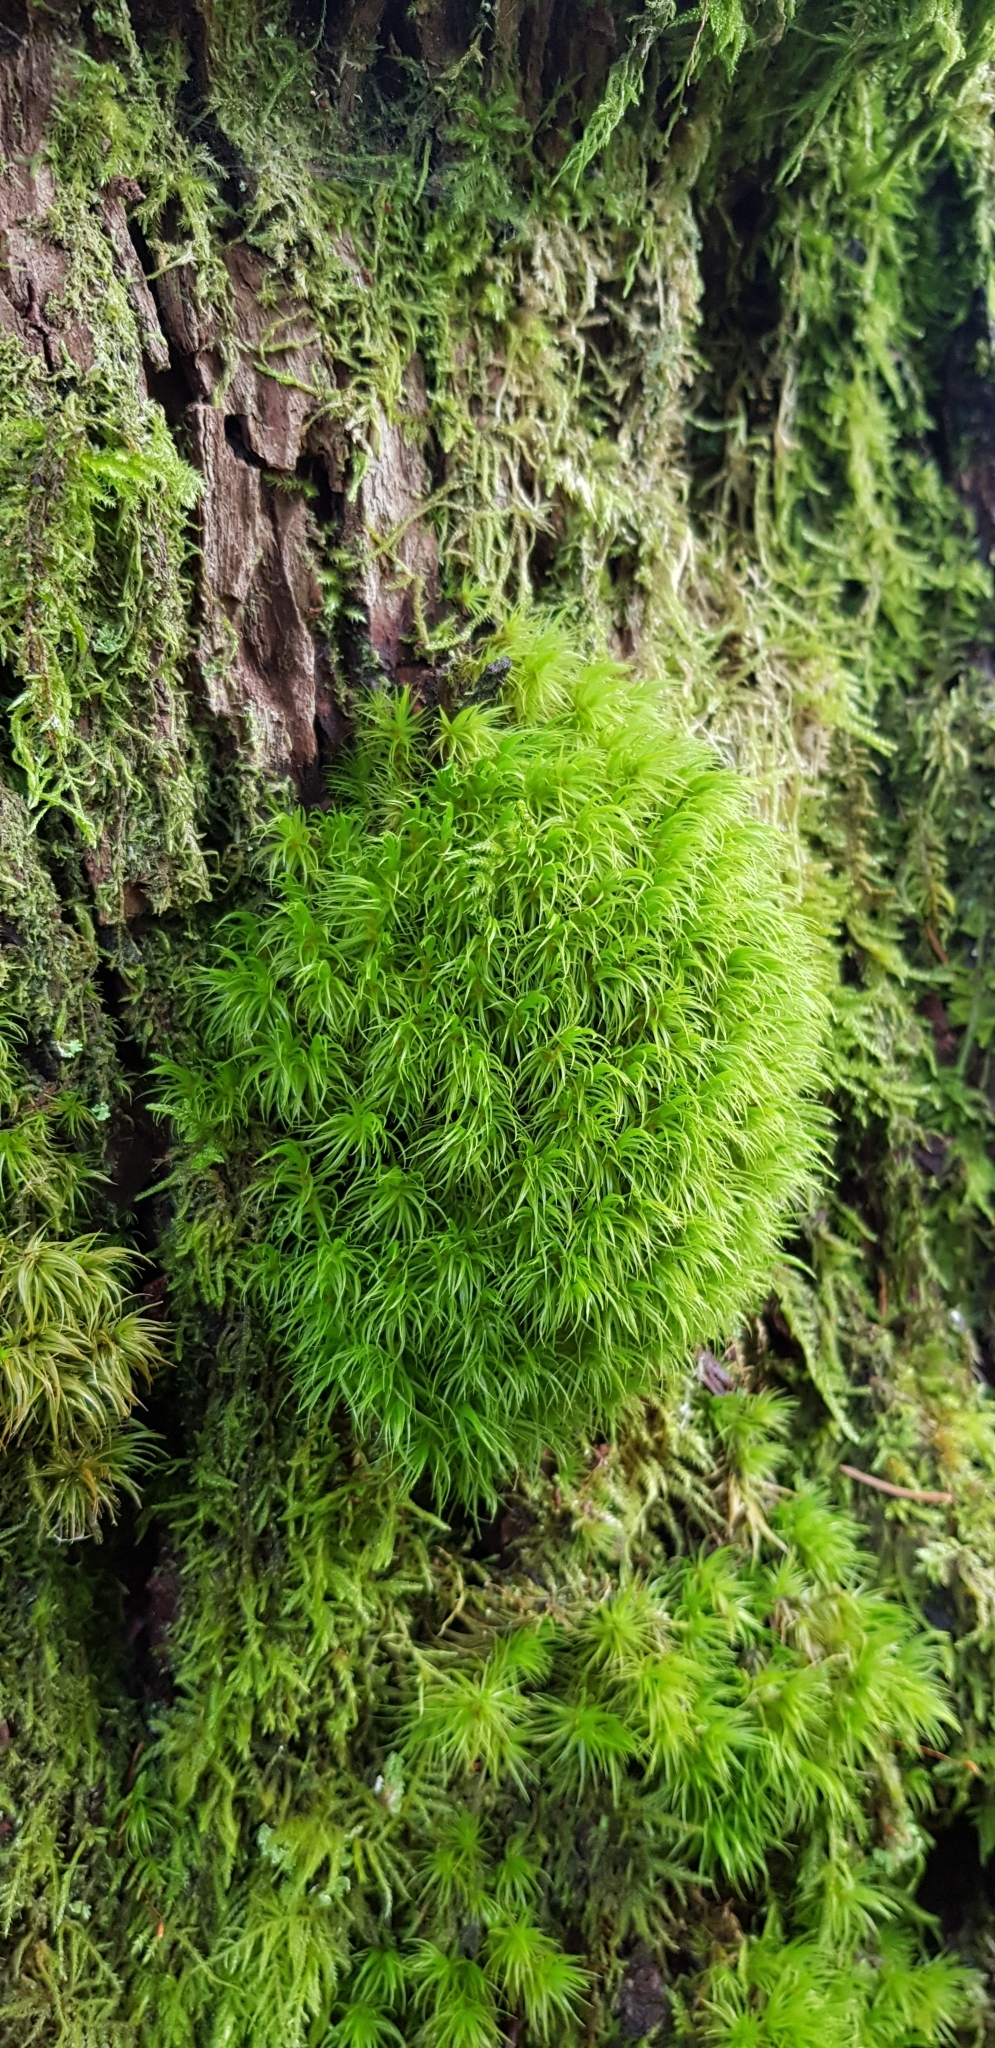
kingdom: Plantae
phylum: Bryophyta
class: Bryopsida
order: Dicranales
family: Dicranaceae
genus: Dicranum
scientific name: Dicranum scoparium
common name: Broom fork-moss
